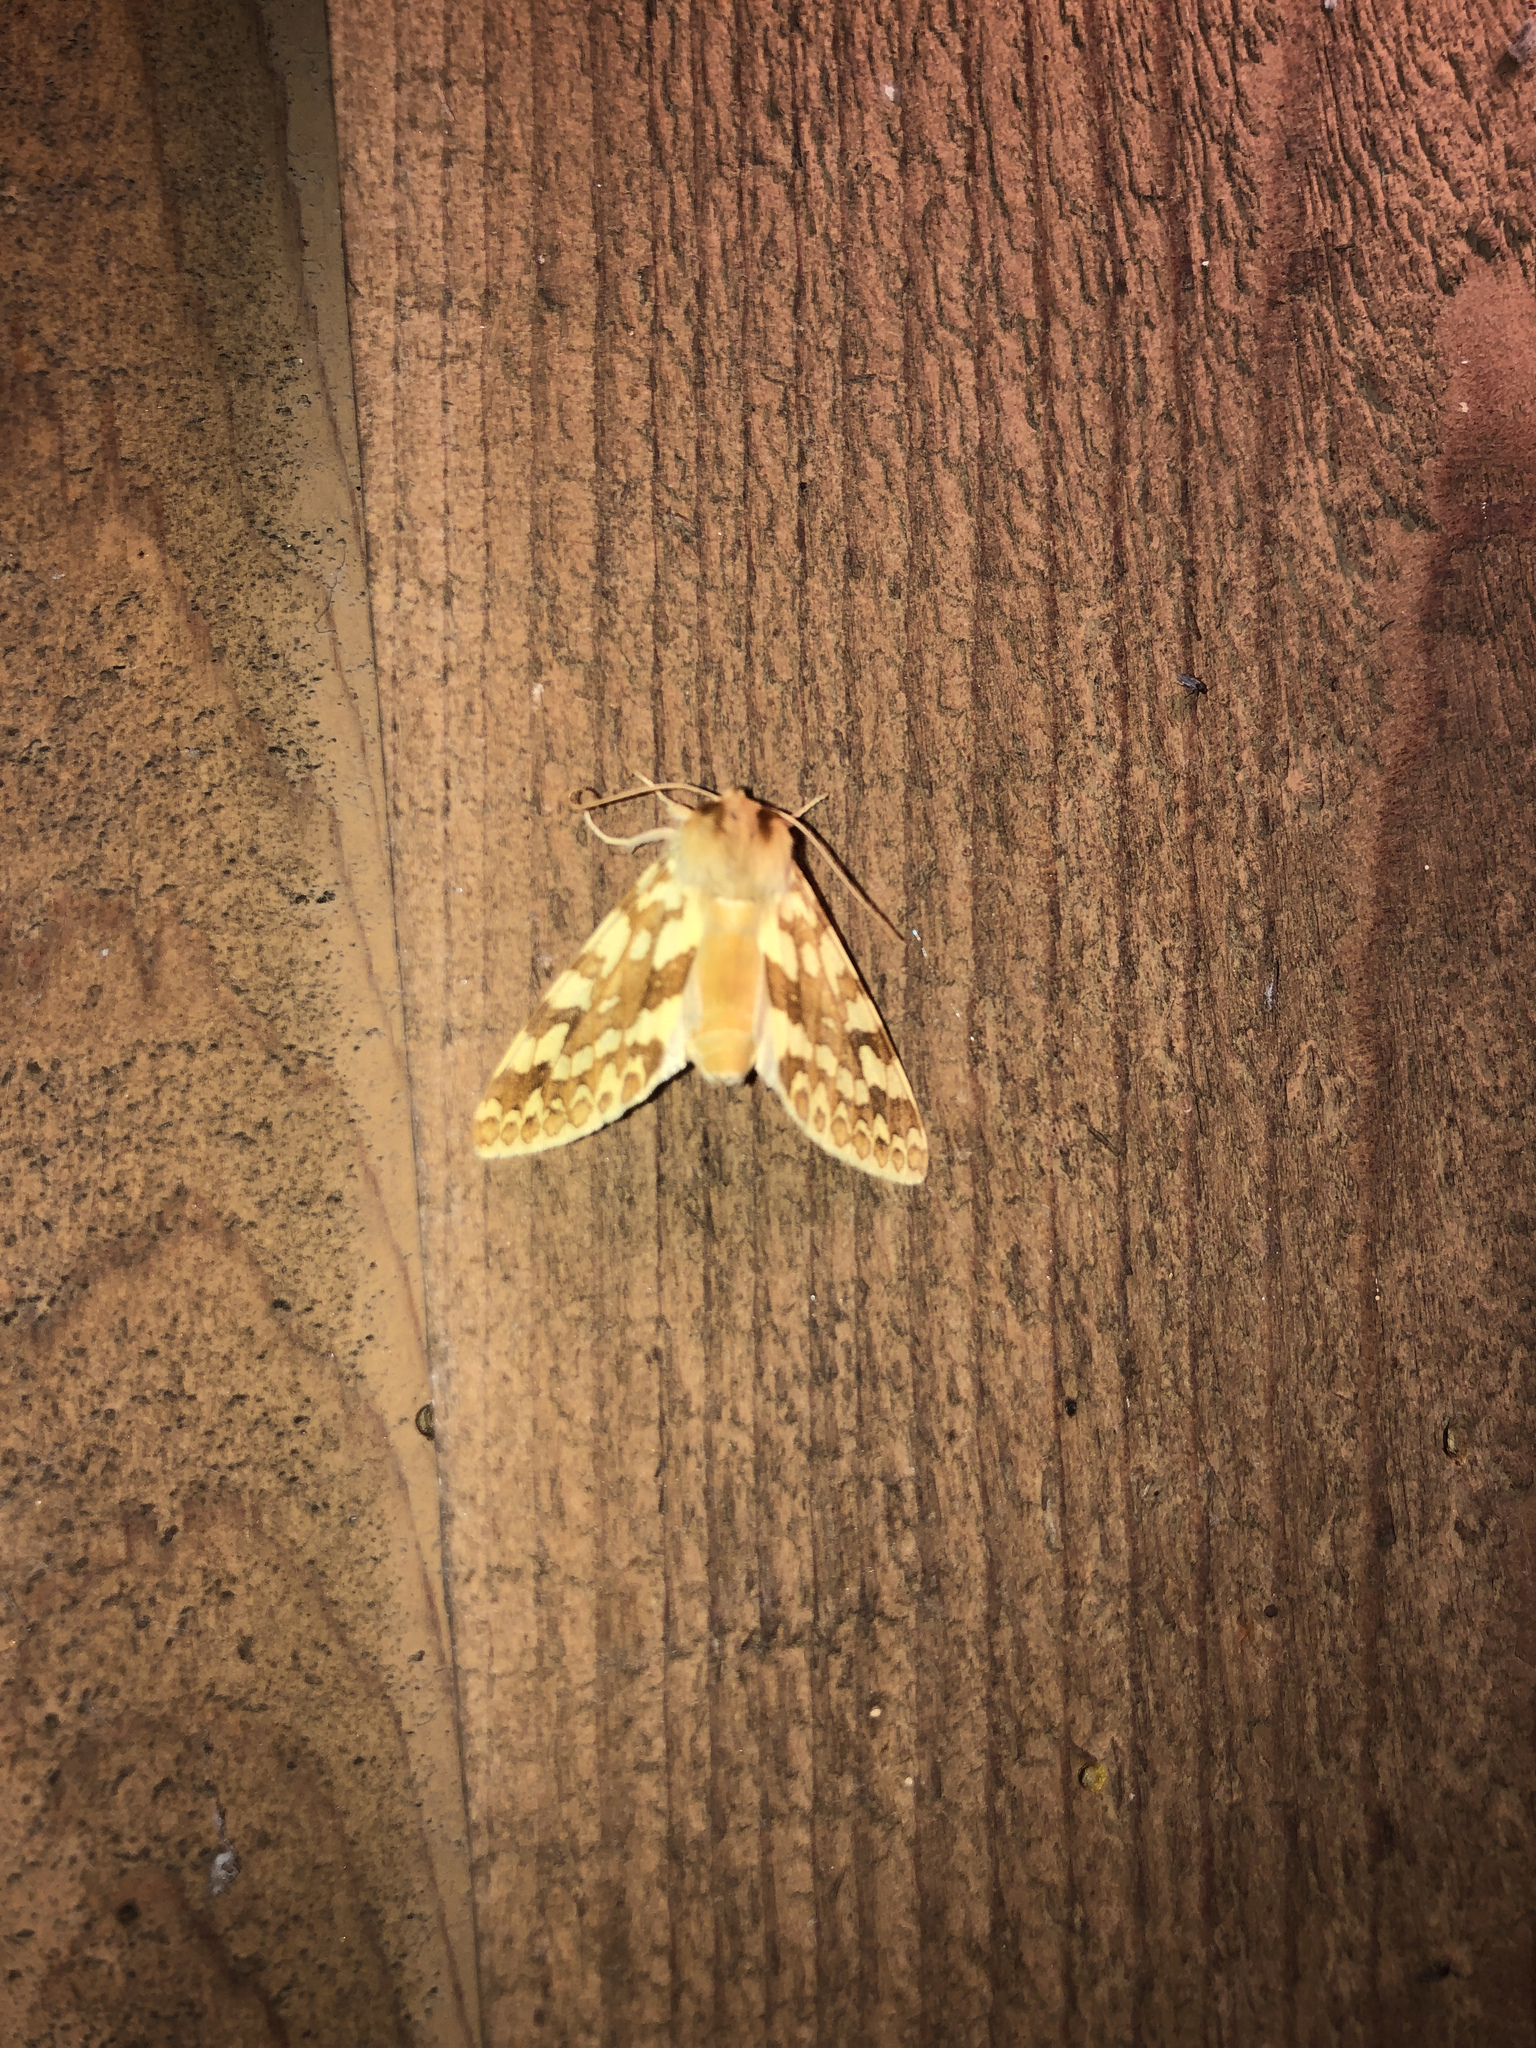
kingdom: Animalia
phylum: Arthropoda
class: Insecta
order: Lepidoptera
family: Erebidae
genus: Lophocampa
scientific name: Lophocampa maculata
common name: Spotted tussock moth
